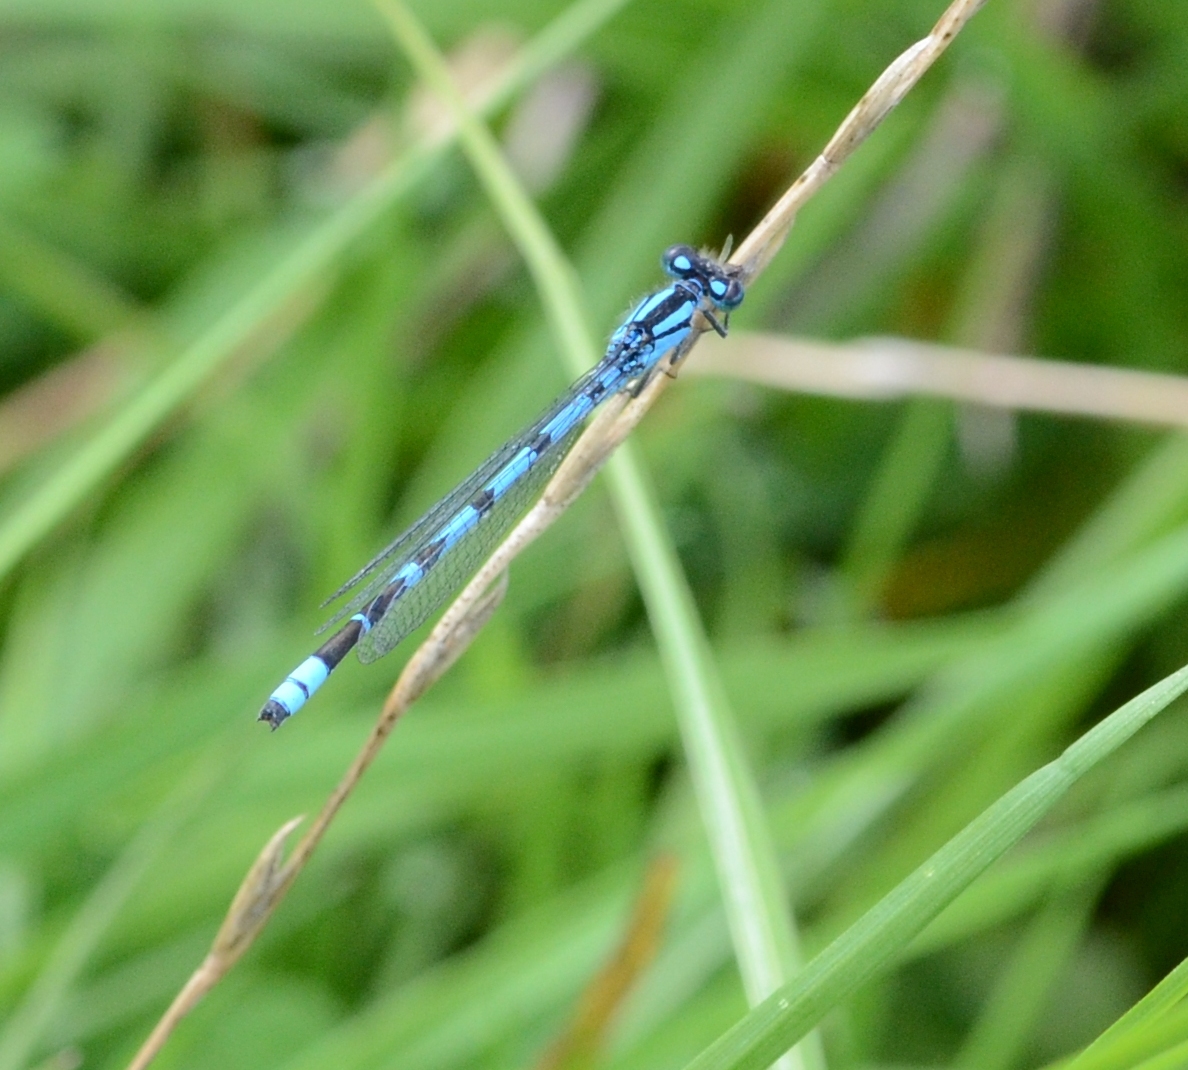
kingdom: Animalia
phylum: Arthropoda
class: Insecta
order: Odonata
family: Coenagrionidae
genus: Enallagma
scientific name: Enallagma cyathigerum
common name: Common blue damselfly
